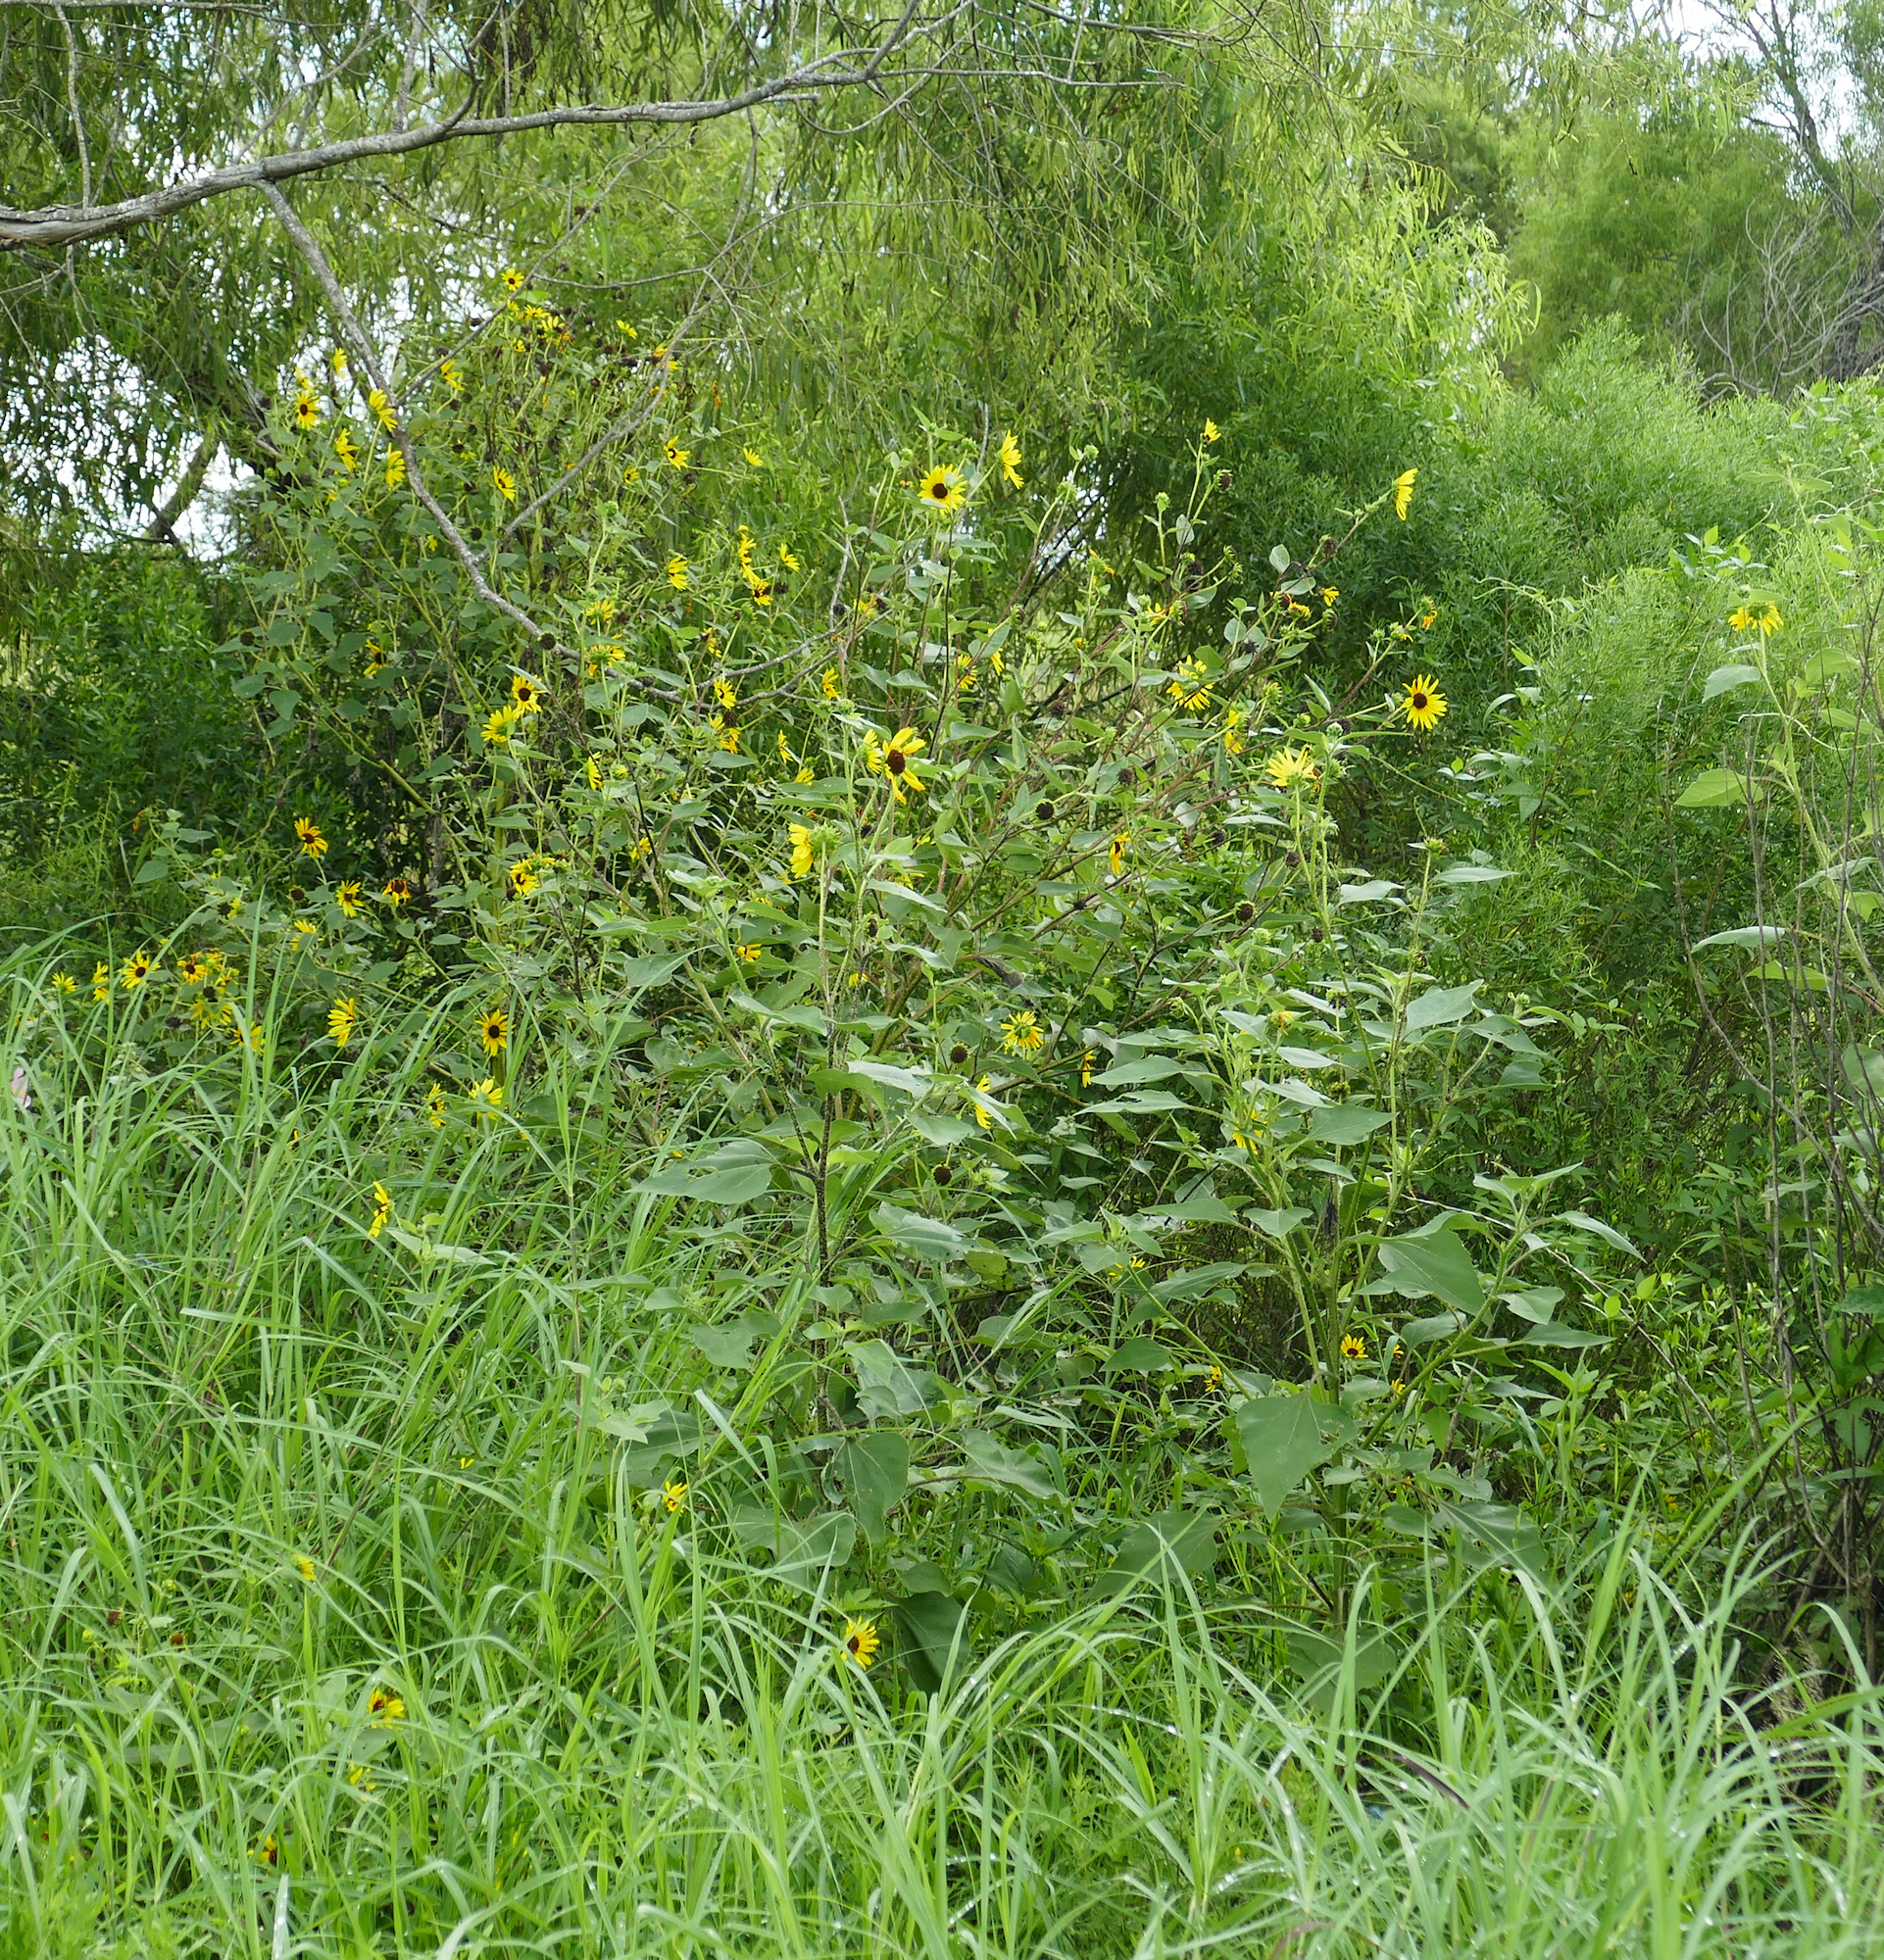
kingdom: Plantae
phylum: Tracheophyta
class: Magnoliopsida
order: Asterales
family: Asteraceae
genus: Helianthus
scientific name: Helianthus annuus
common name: Sunflower
